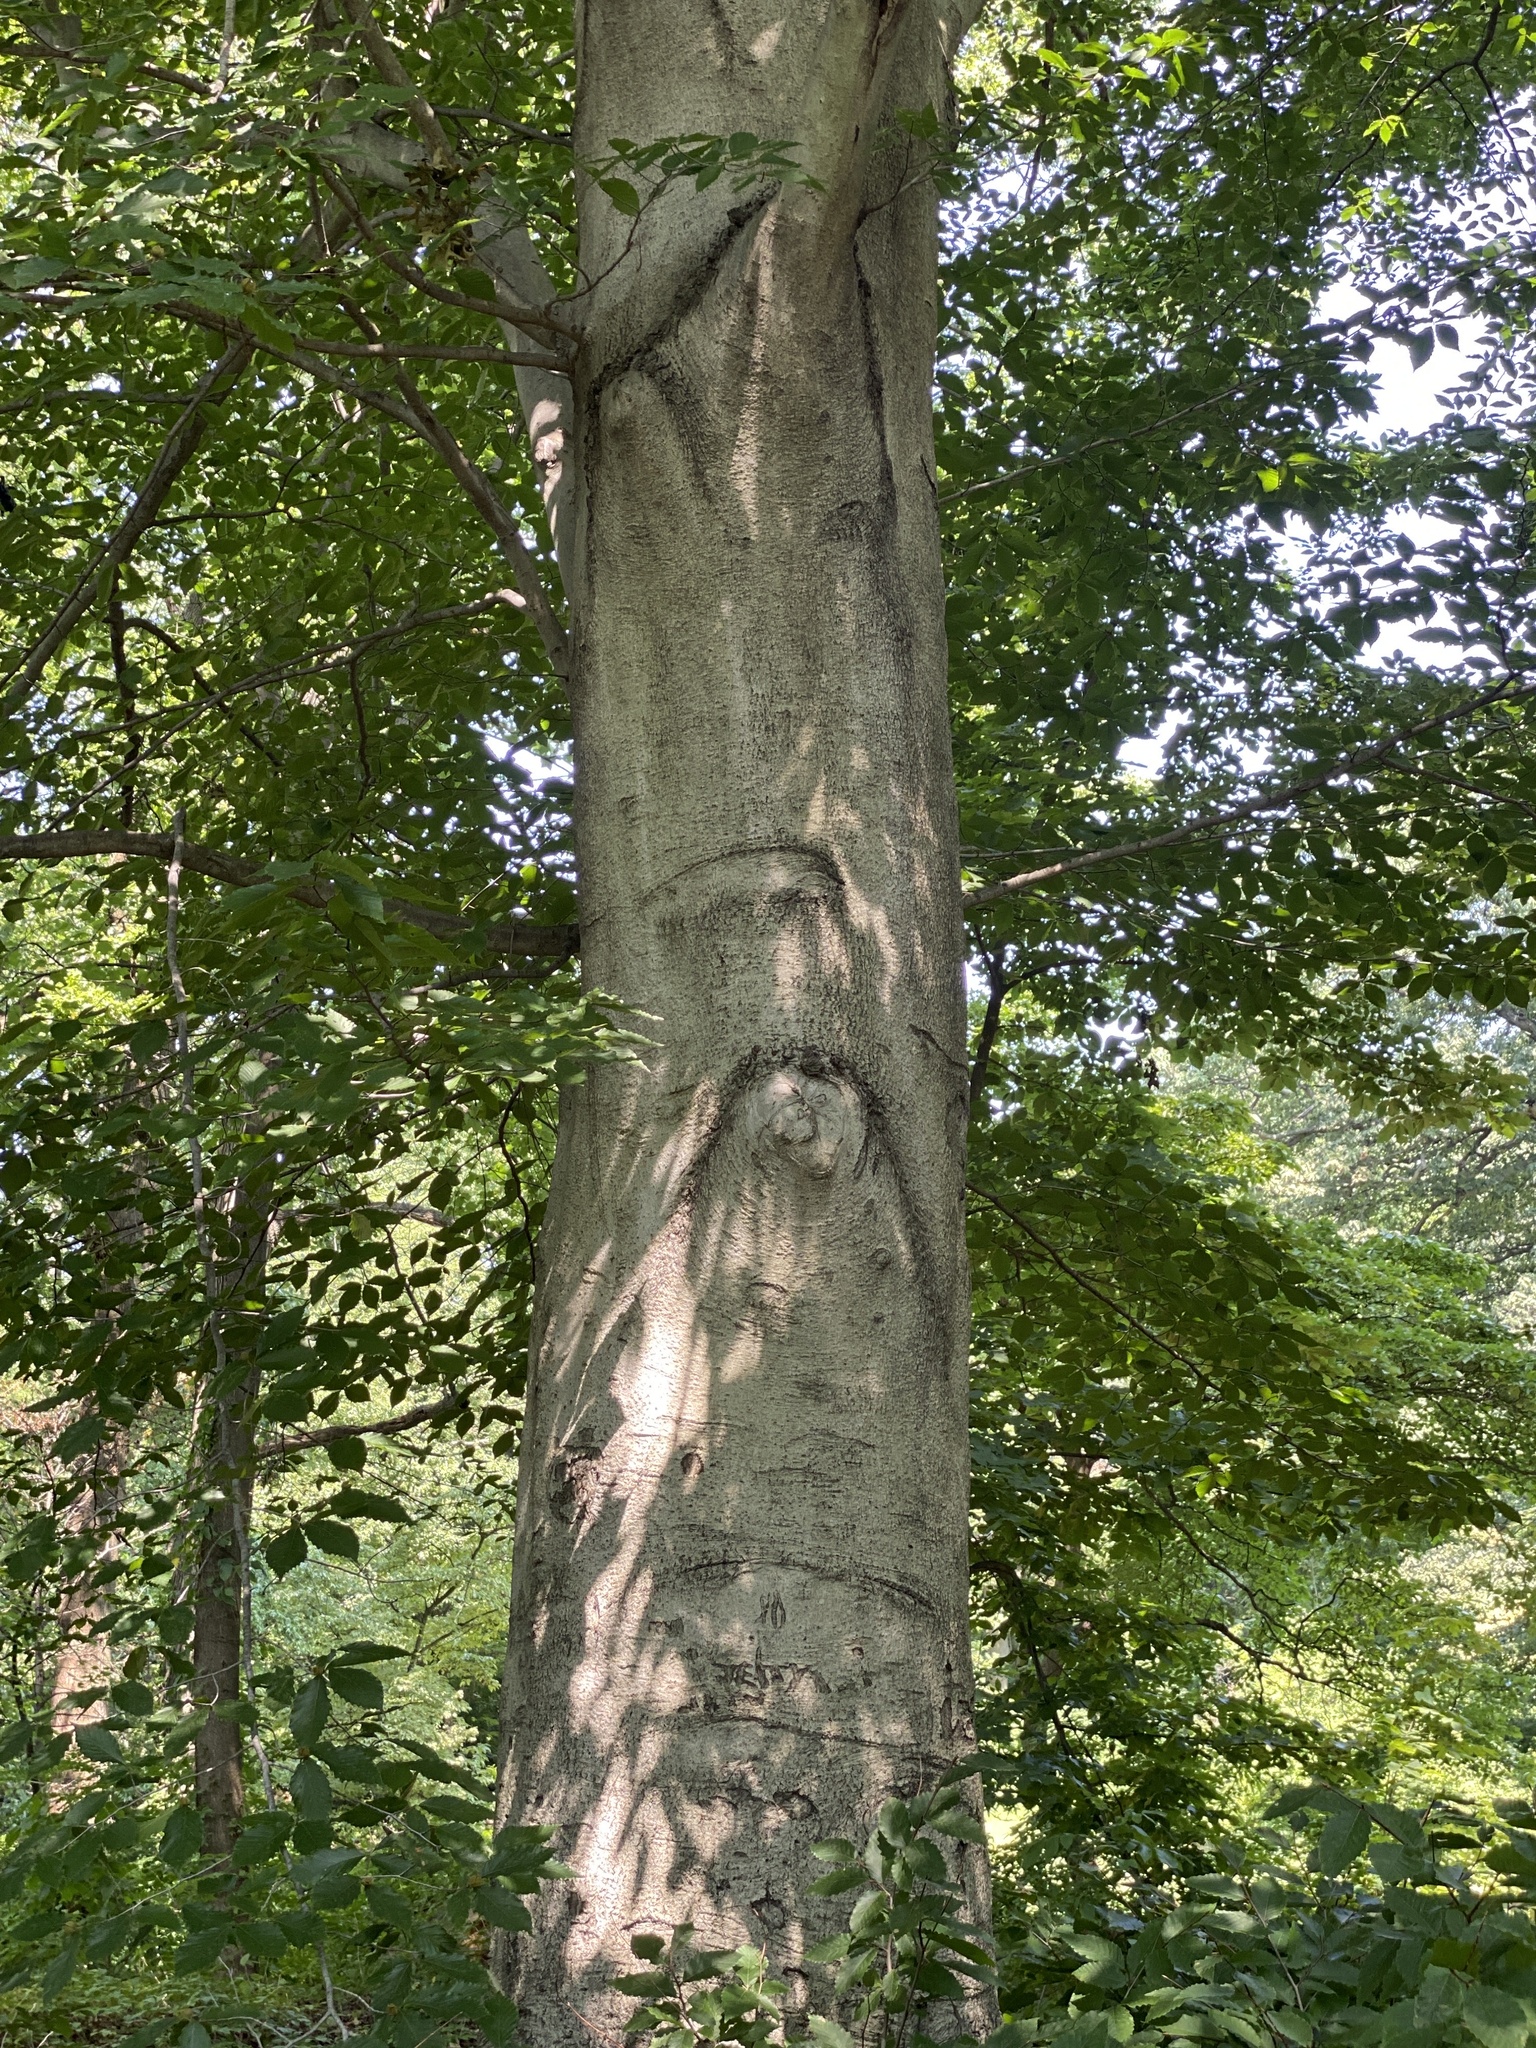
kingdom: Plantae
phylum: Tracheophyta
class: Magnoliopsida
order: Fagales
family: Fagaceae
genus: Fagus
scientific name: Fagus grandifolia
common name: American beech
